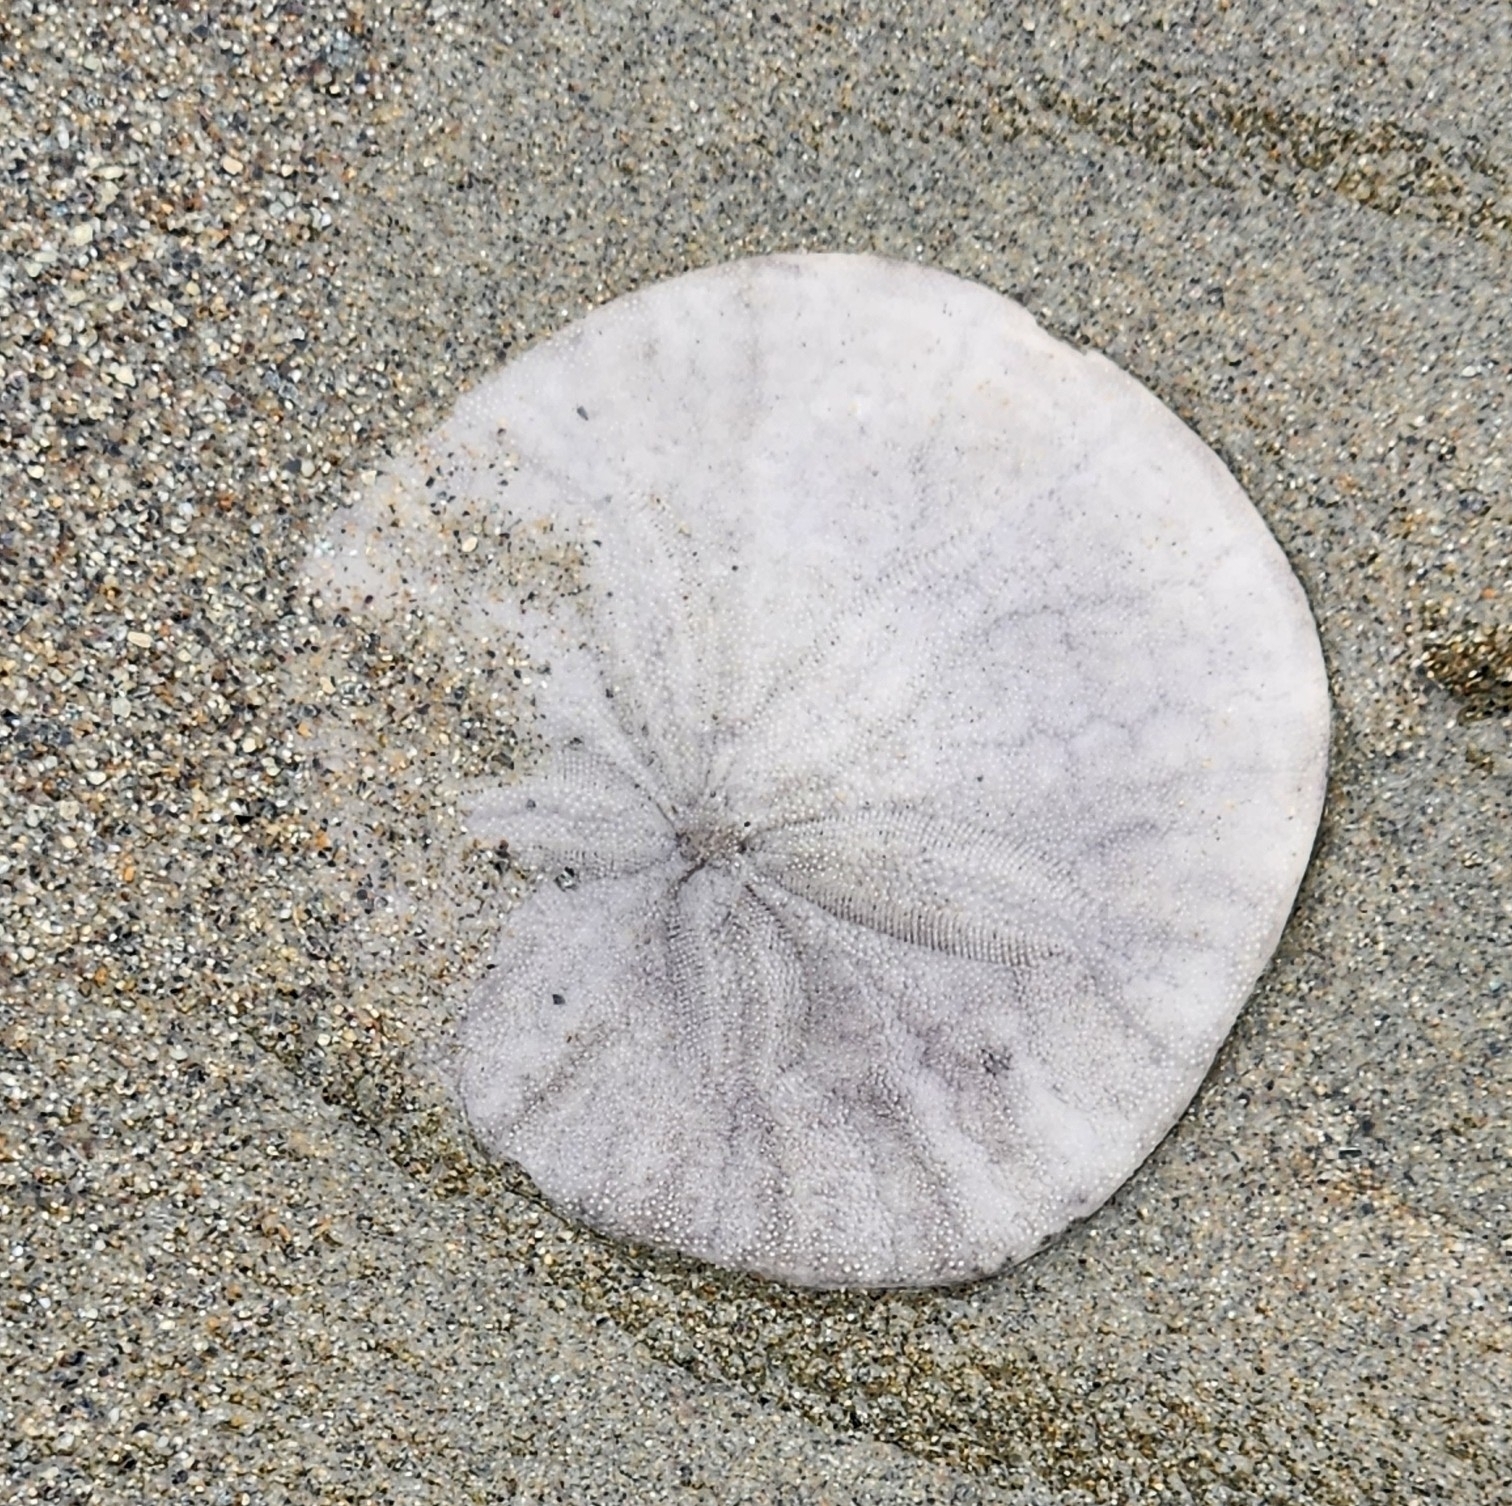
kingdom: Animalia
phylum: Echinodermata
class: Echinoidea
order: Echinolampadacea
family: Dendrasteridae
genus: Dendraster
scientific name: Dendraster excentricus
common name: Eccentric sand dollar sea urchin
